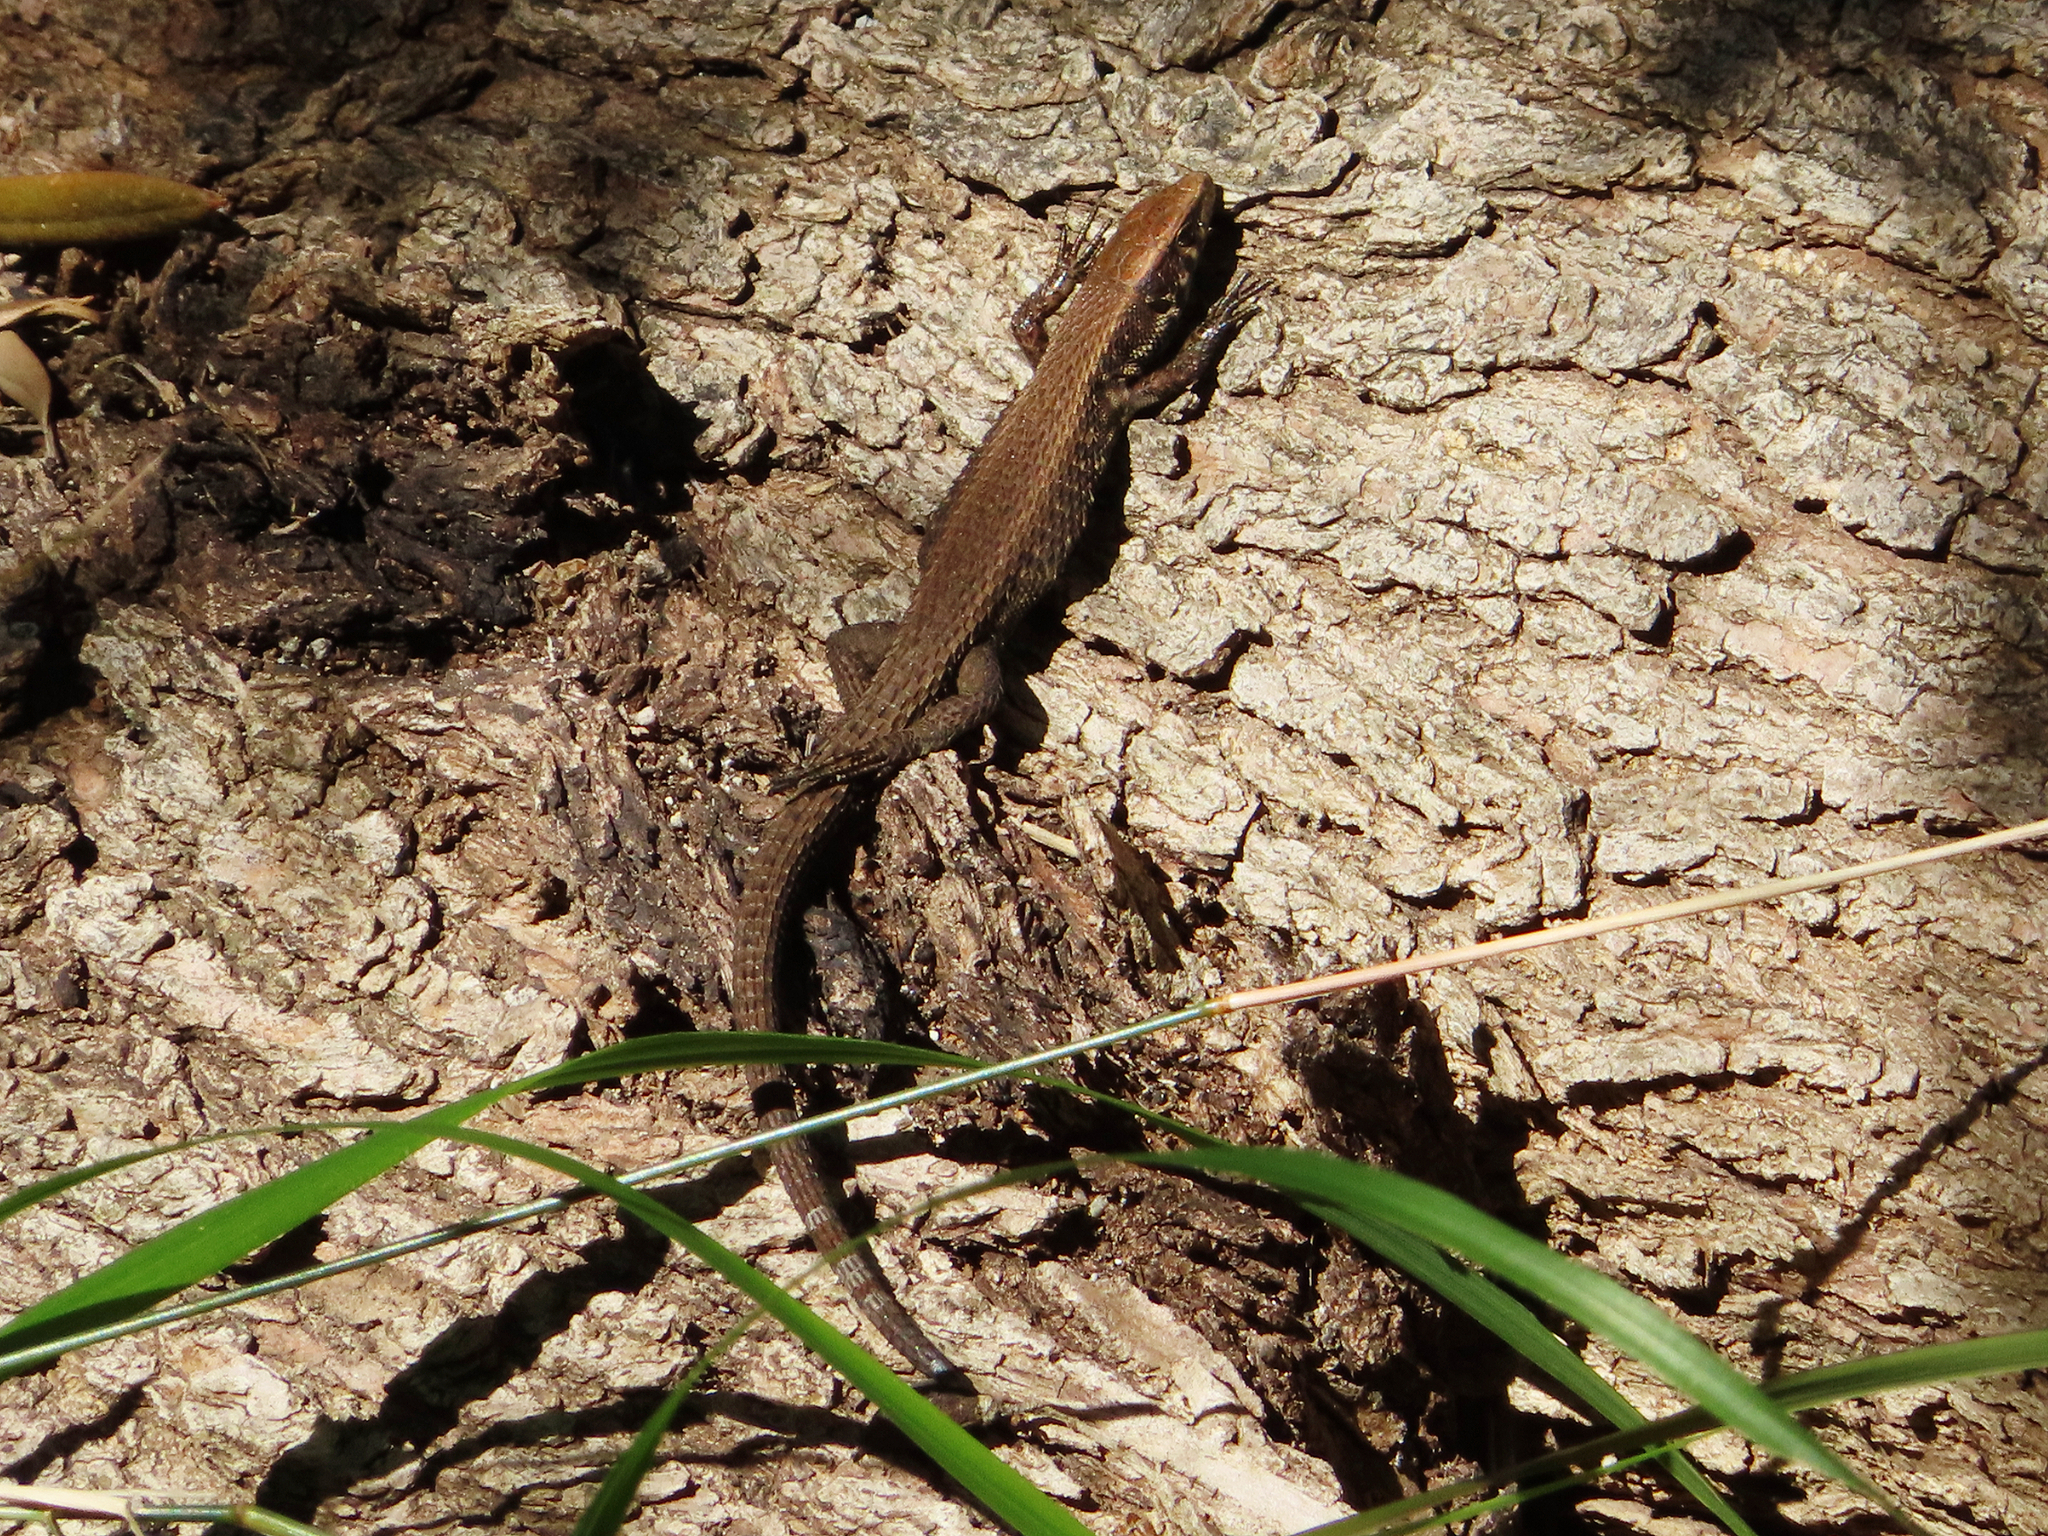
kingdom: Animalia
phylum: Chordata
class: Squamata
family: Lacertidae
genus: Algyroides
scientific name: Algyroides moreoticus
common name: Greek algyroides
